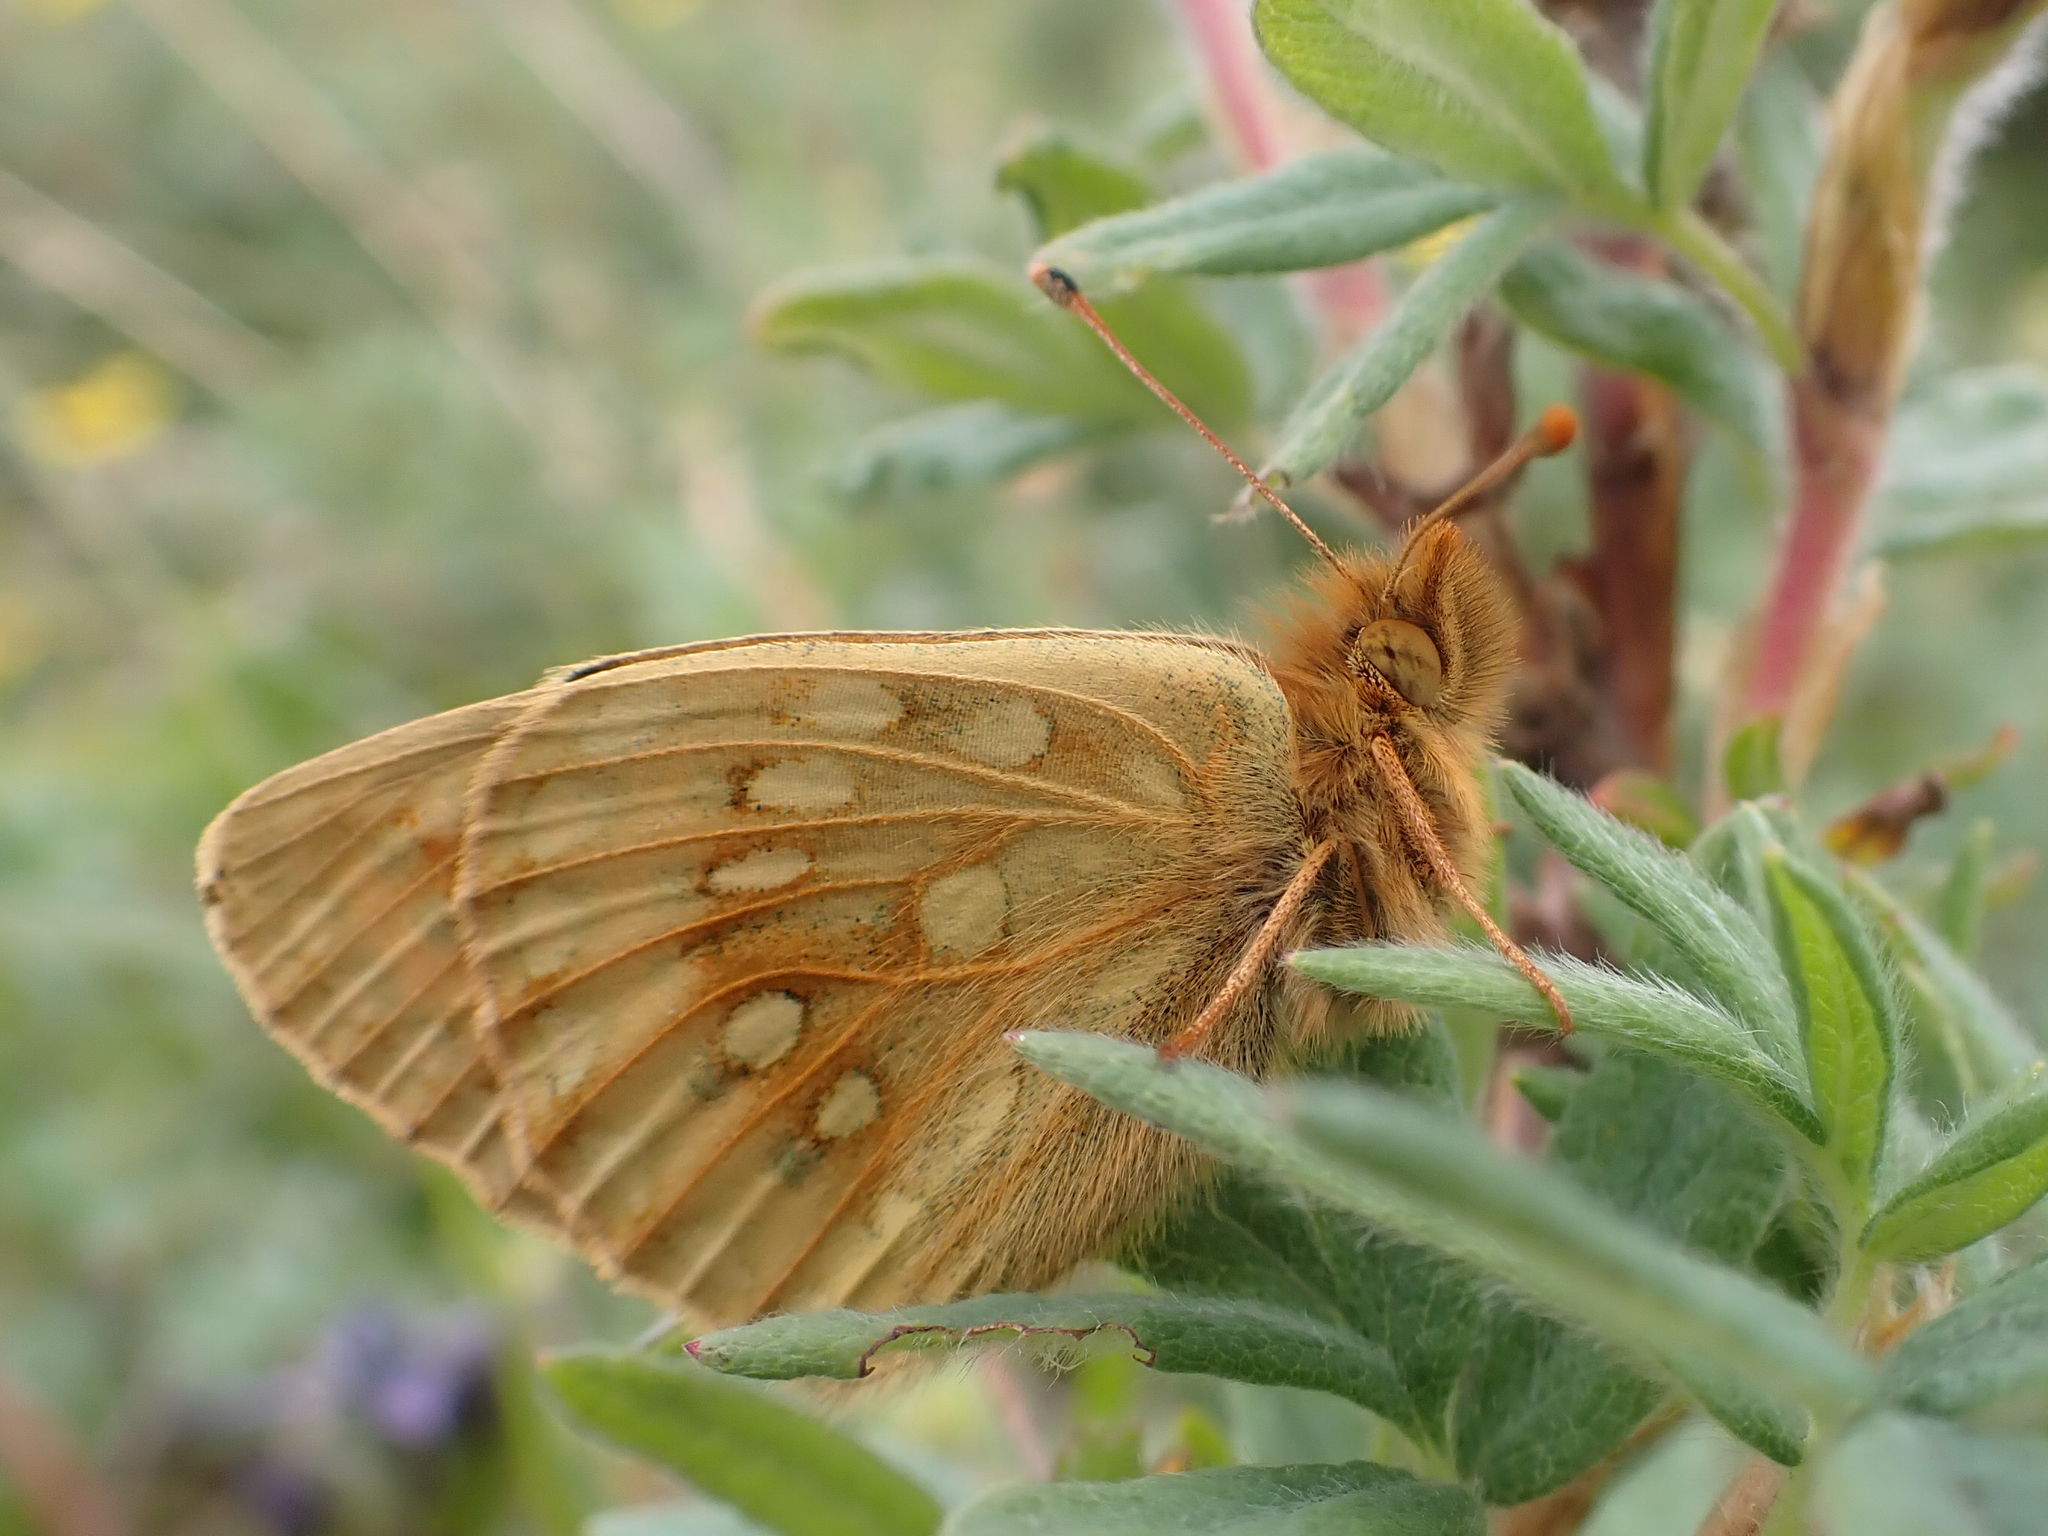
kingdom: Animalia
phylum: Arthropoda
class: Insecta
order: Lepidoptera
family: Nymphalidae
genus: Speyeria
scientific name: Speyeria mormonia
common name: Mormon fritillary
